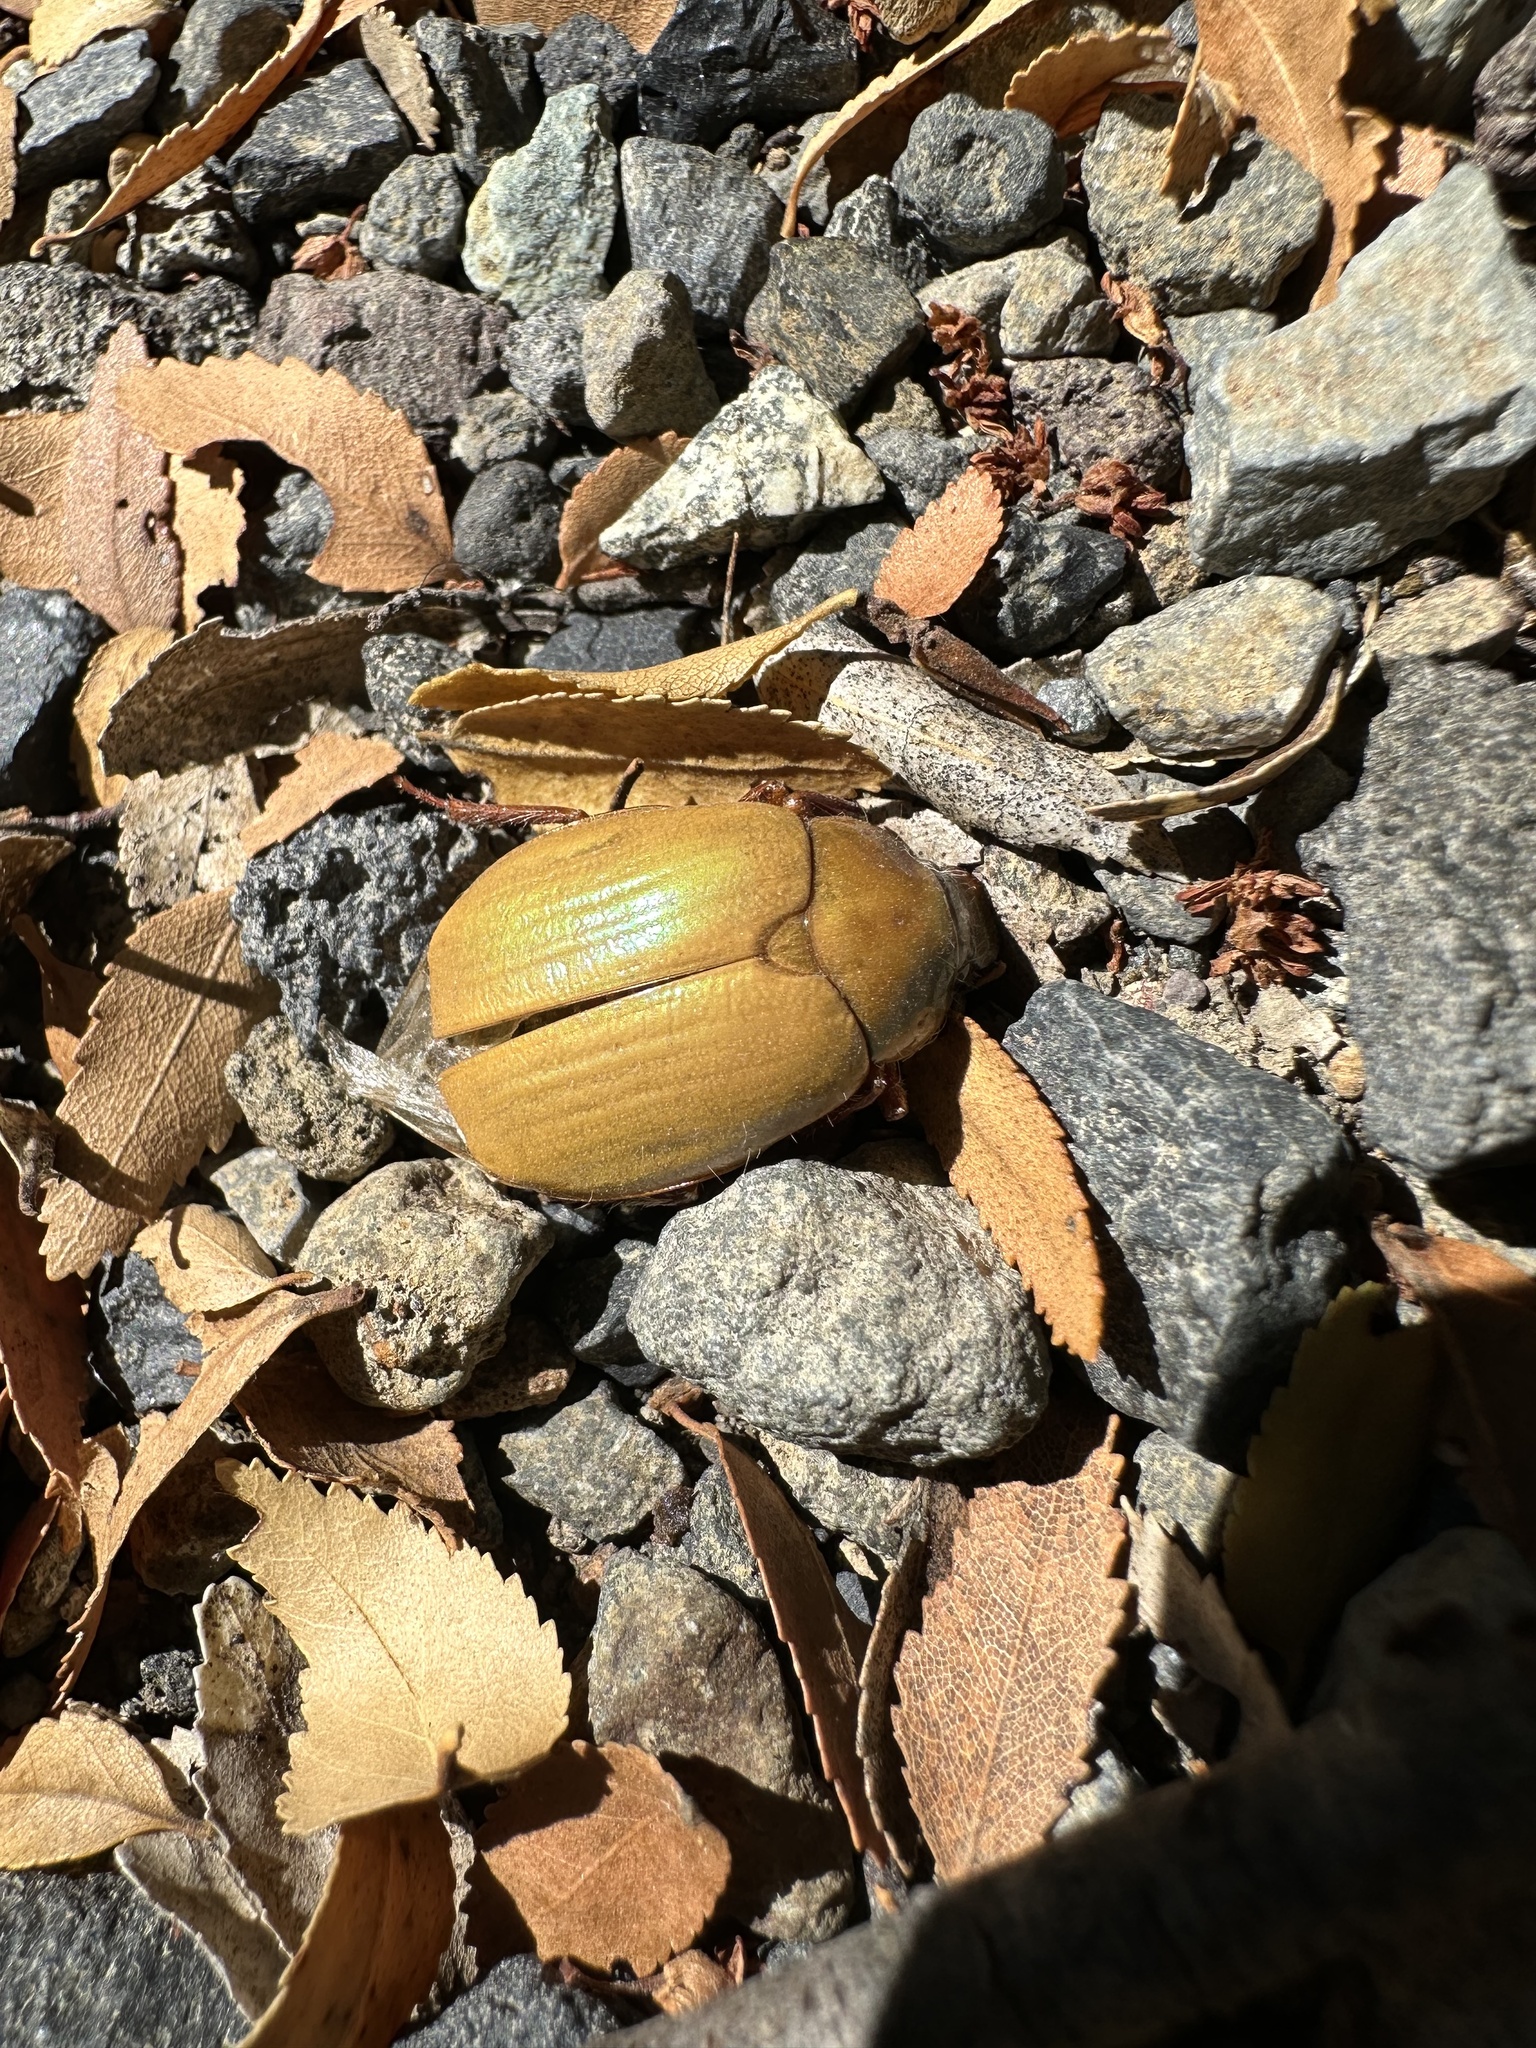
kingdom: Animalia
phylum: Arthropoda
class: Insecta
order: Coleoptera
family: Scarabaeidae
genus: Modialis
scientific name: Modialis prasinella
